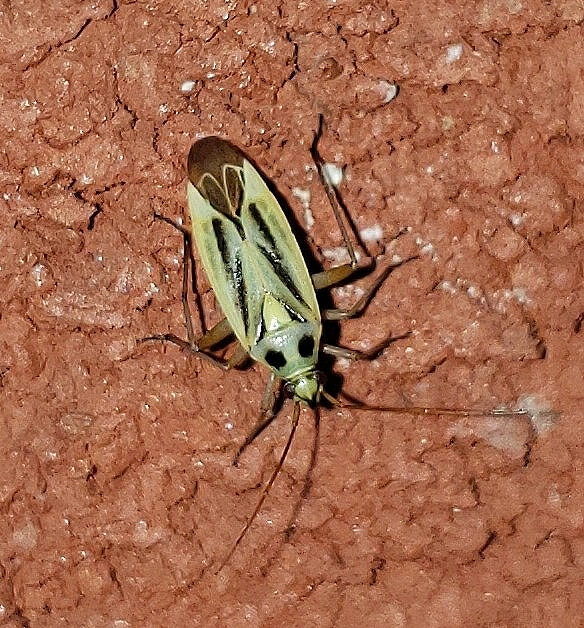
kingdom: Animalia
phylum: Arthropoda
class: Insecta
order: Hemiptera
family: Miridae
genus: Stenotus
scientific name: Stenotus binotatus
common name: Plant bug
